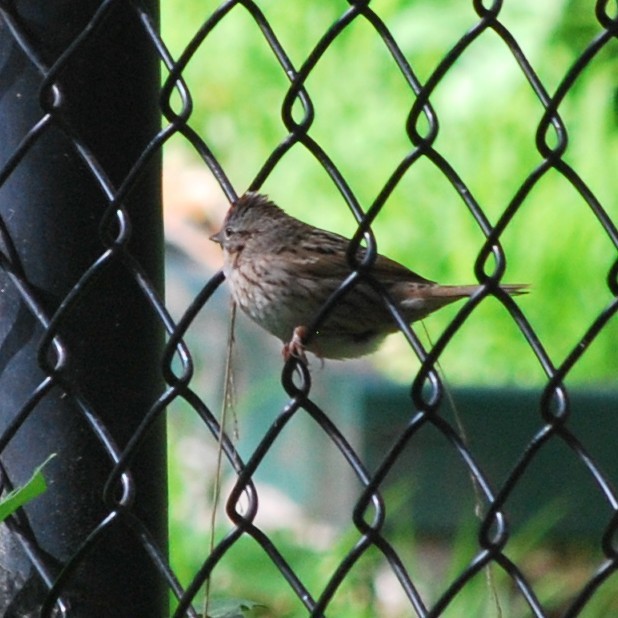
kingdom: Animalia
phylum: Chordata
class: Aves
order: Passeriformes
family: Passerellidae
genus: Melospiza
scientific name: Melospiza lincolnii
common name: Lincoln's sparrow
